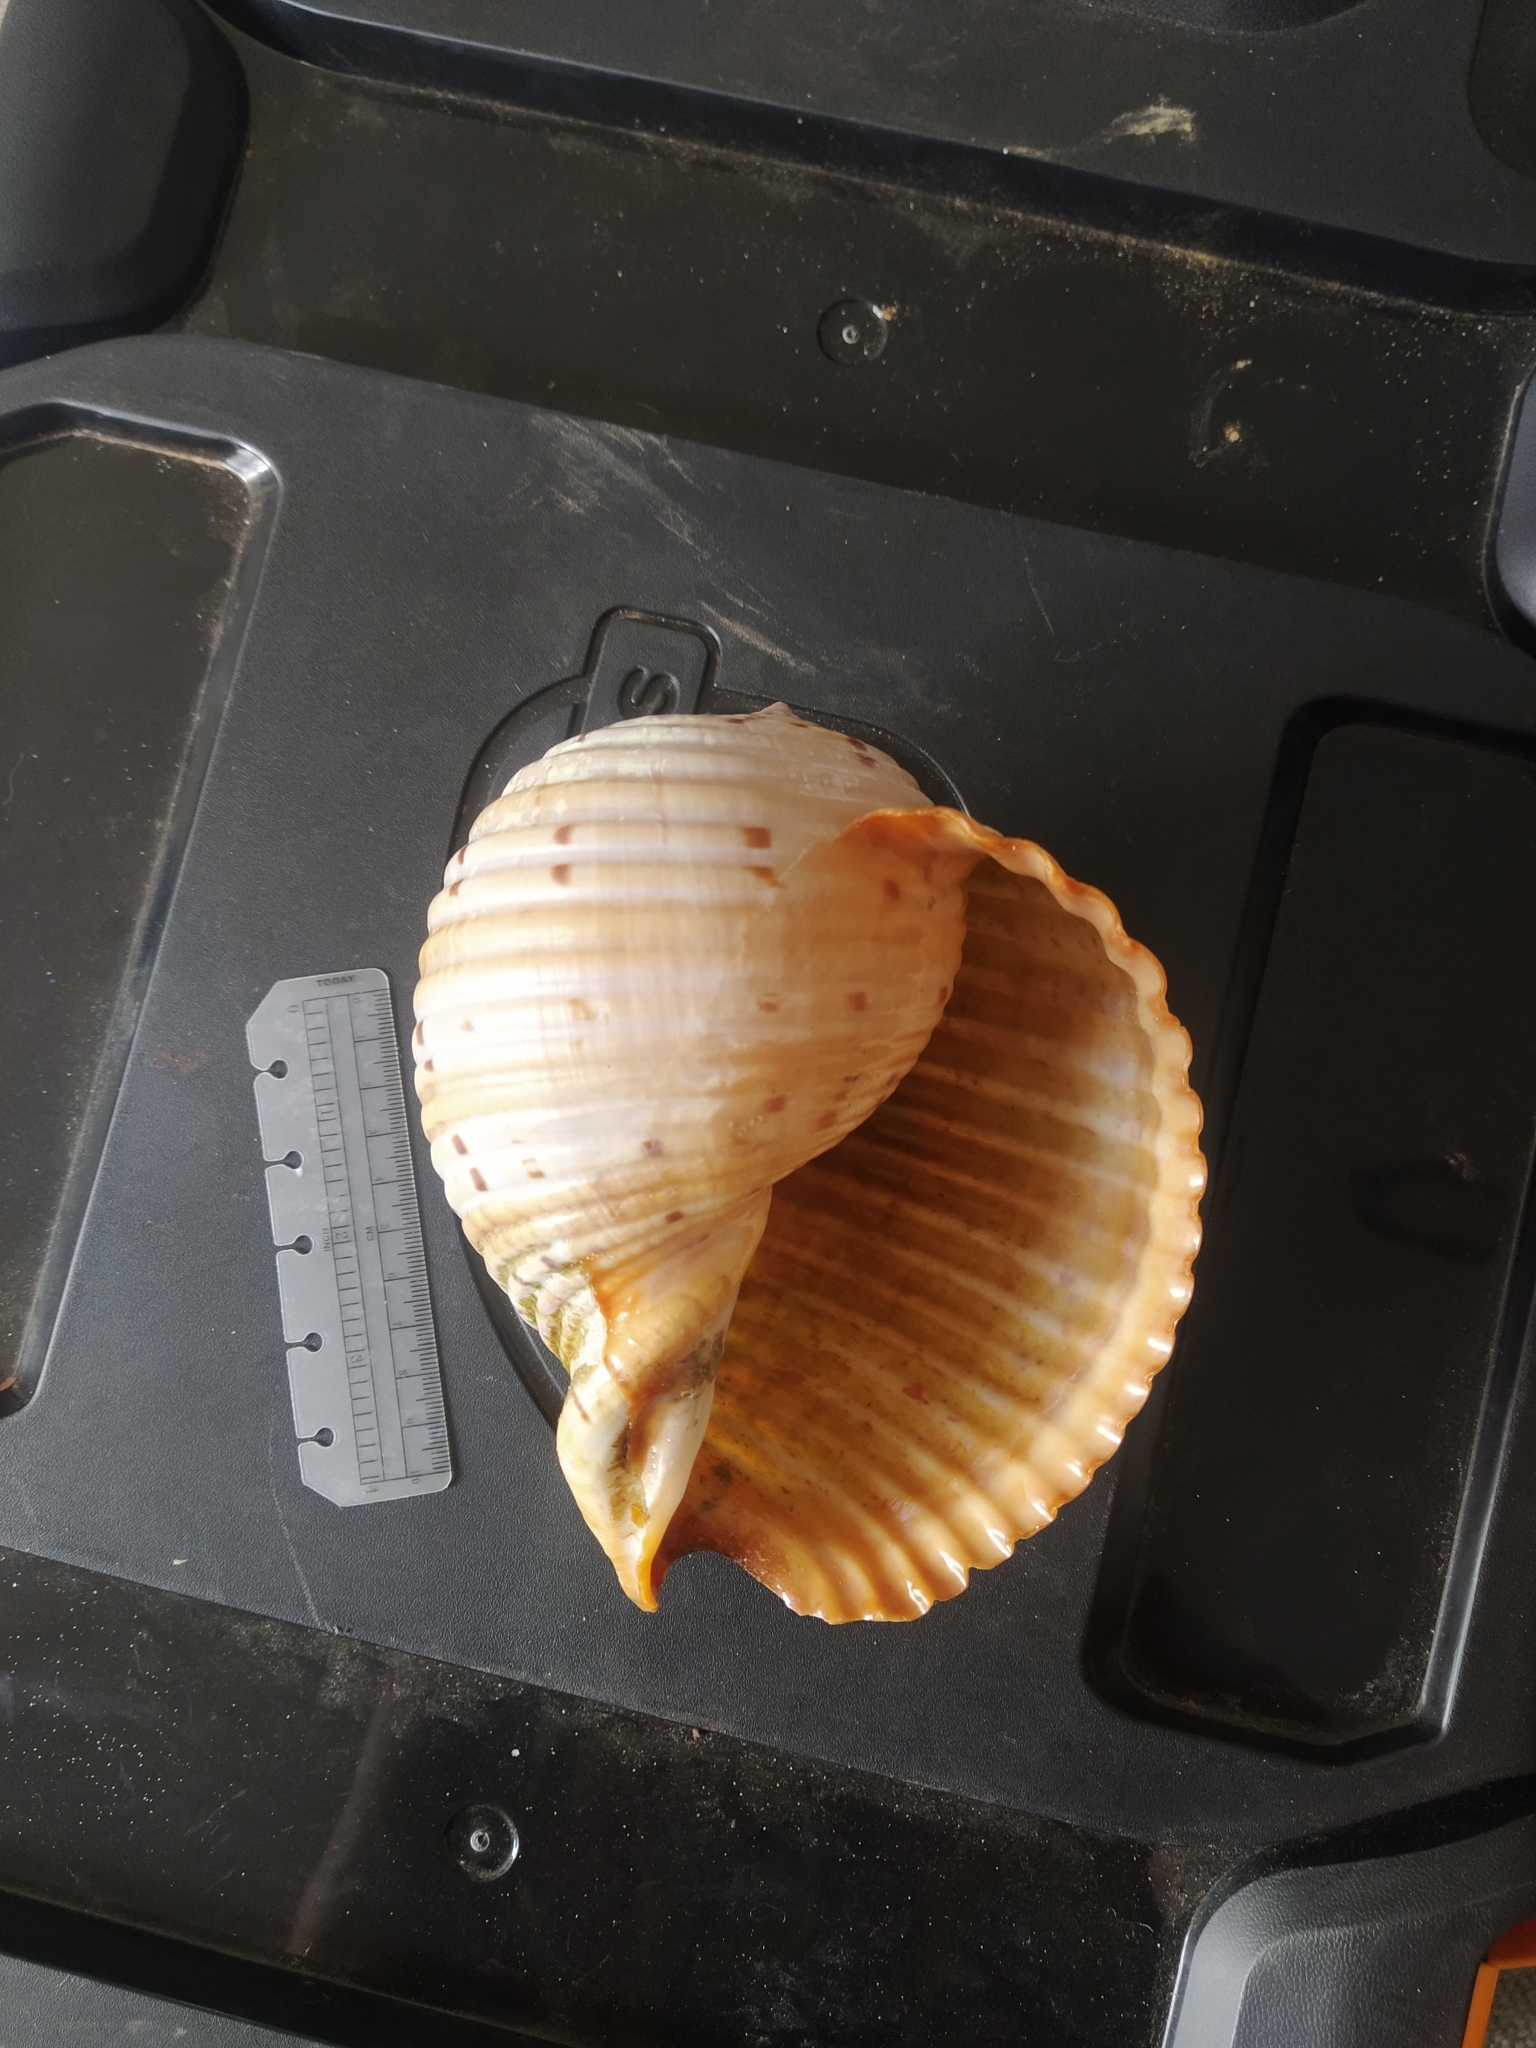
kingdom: Animalia
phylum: Mollusca
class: Gastropoda
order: Littorinimorpha
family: Tonnidae
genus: Tonna
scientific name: Tonna tankervillii
